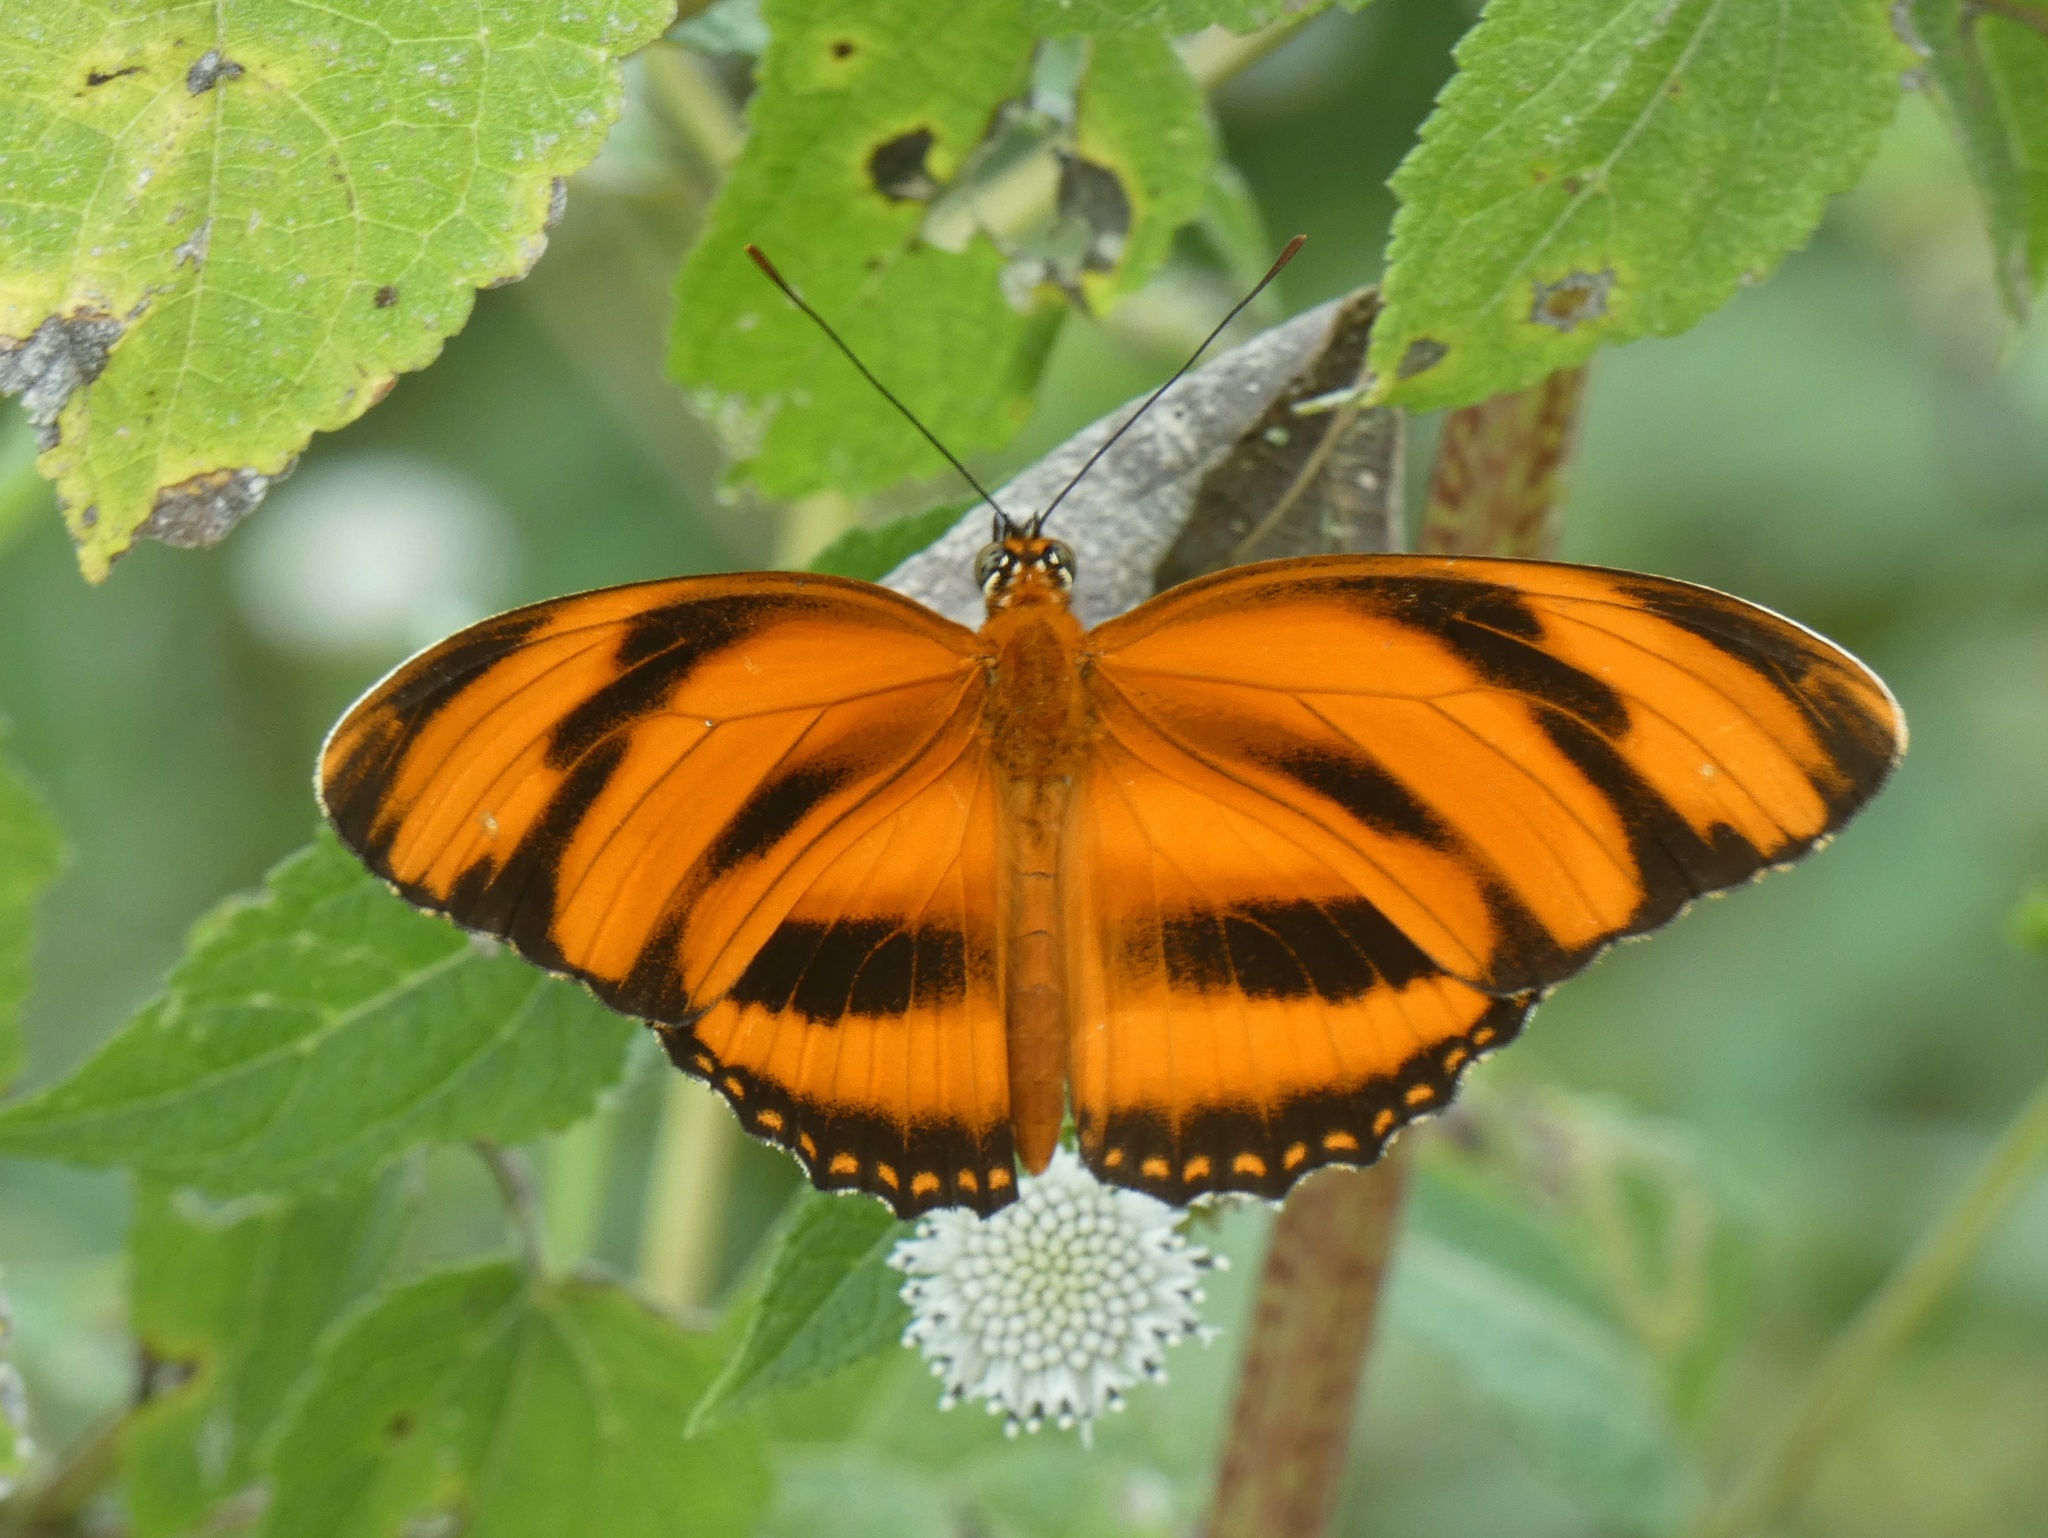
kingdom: Animalia
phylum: Arthropoda
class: Insecta
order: Lepidoptera
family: Nymphalidae
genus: Dryadula
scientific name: Dryadula phaetusa
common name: Banded orange heliconian
